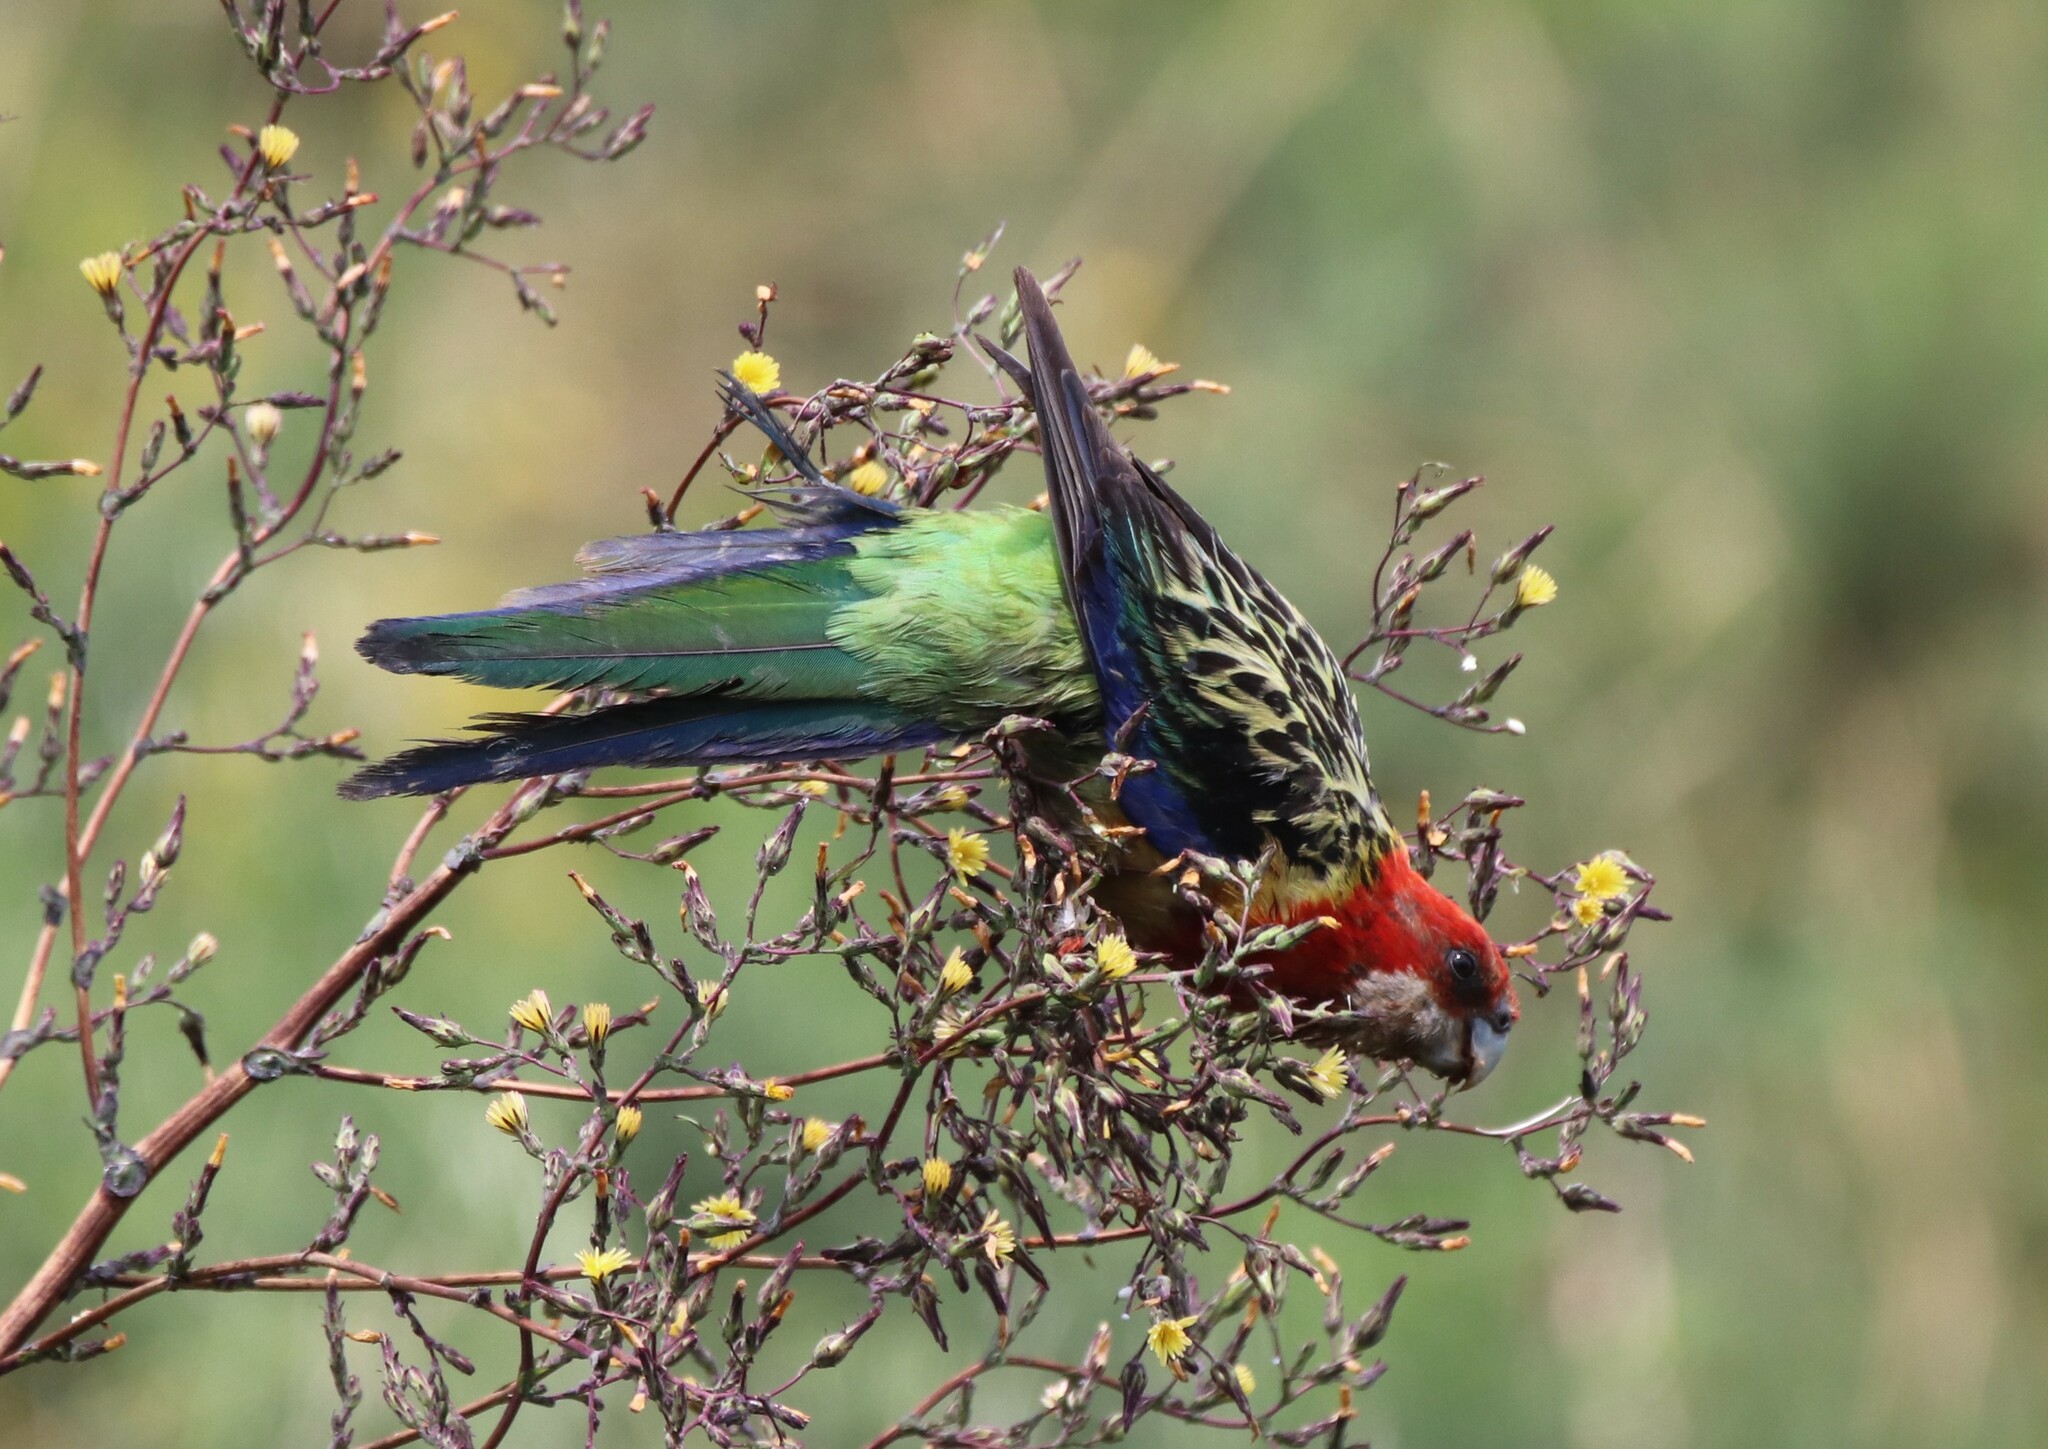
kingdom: Animalia
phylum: Chordata
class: Aves
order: Psittaciformes
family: Psittacidae
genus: Platycercus
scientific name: Platycercus eximius
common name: Eastern rosella
